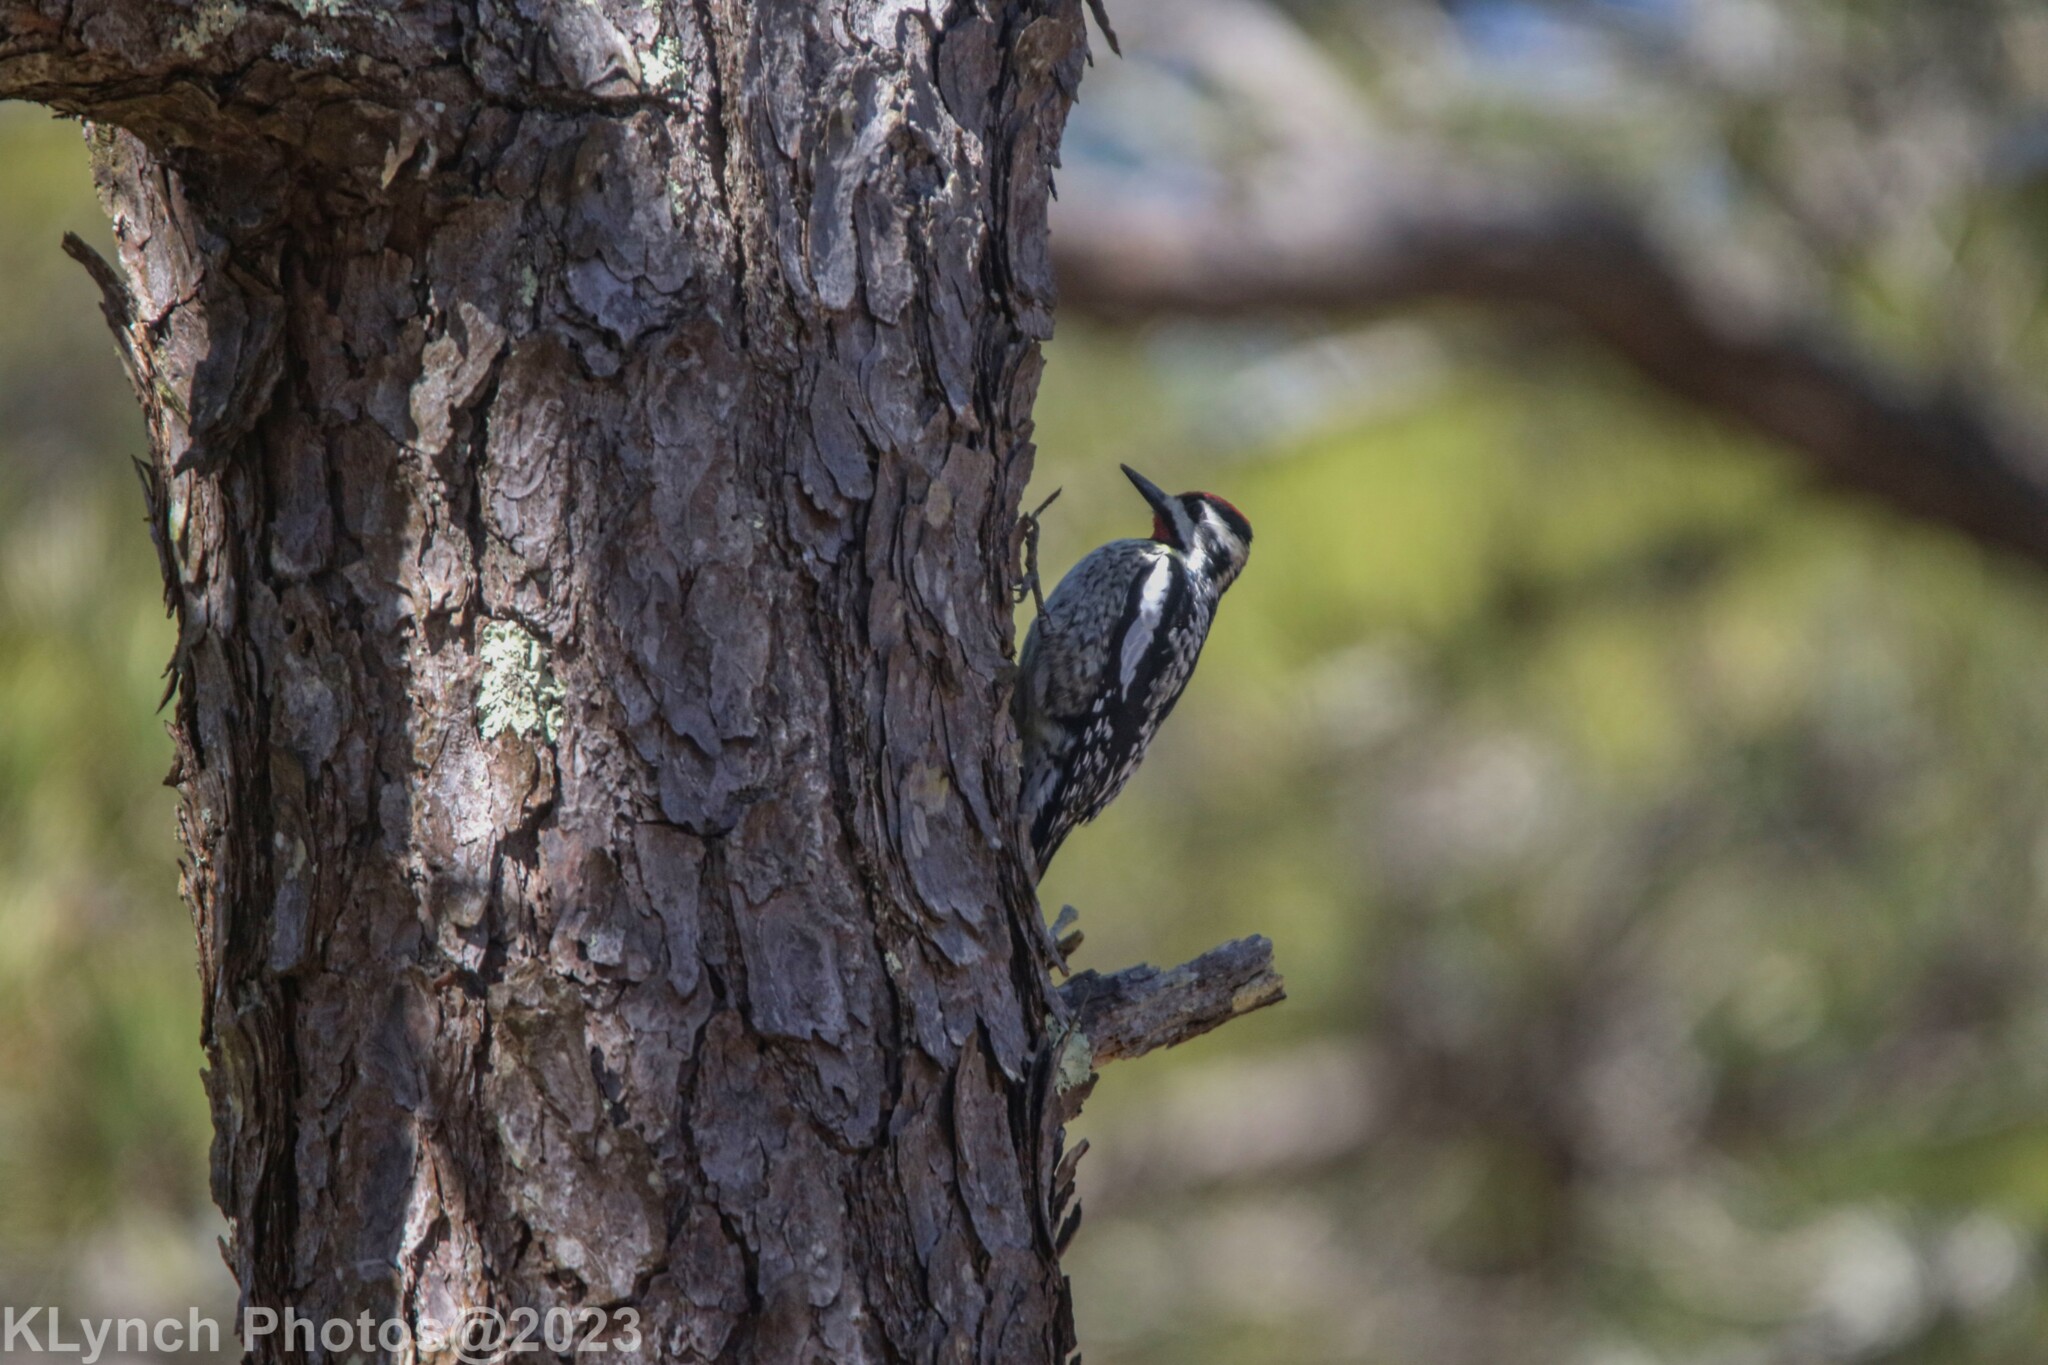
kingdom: Animalia
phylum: Chordata
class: Aves
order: Piciformes
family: Picidae
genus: Sphyrapicus
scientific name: Sphyrapicus varius
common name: Yellow-bellied sapsucker
